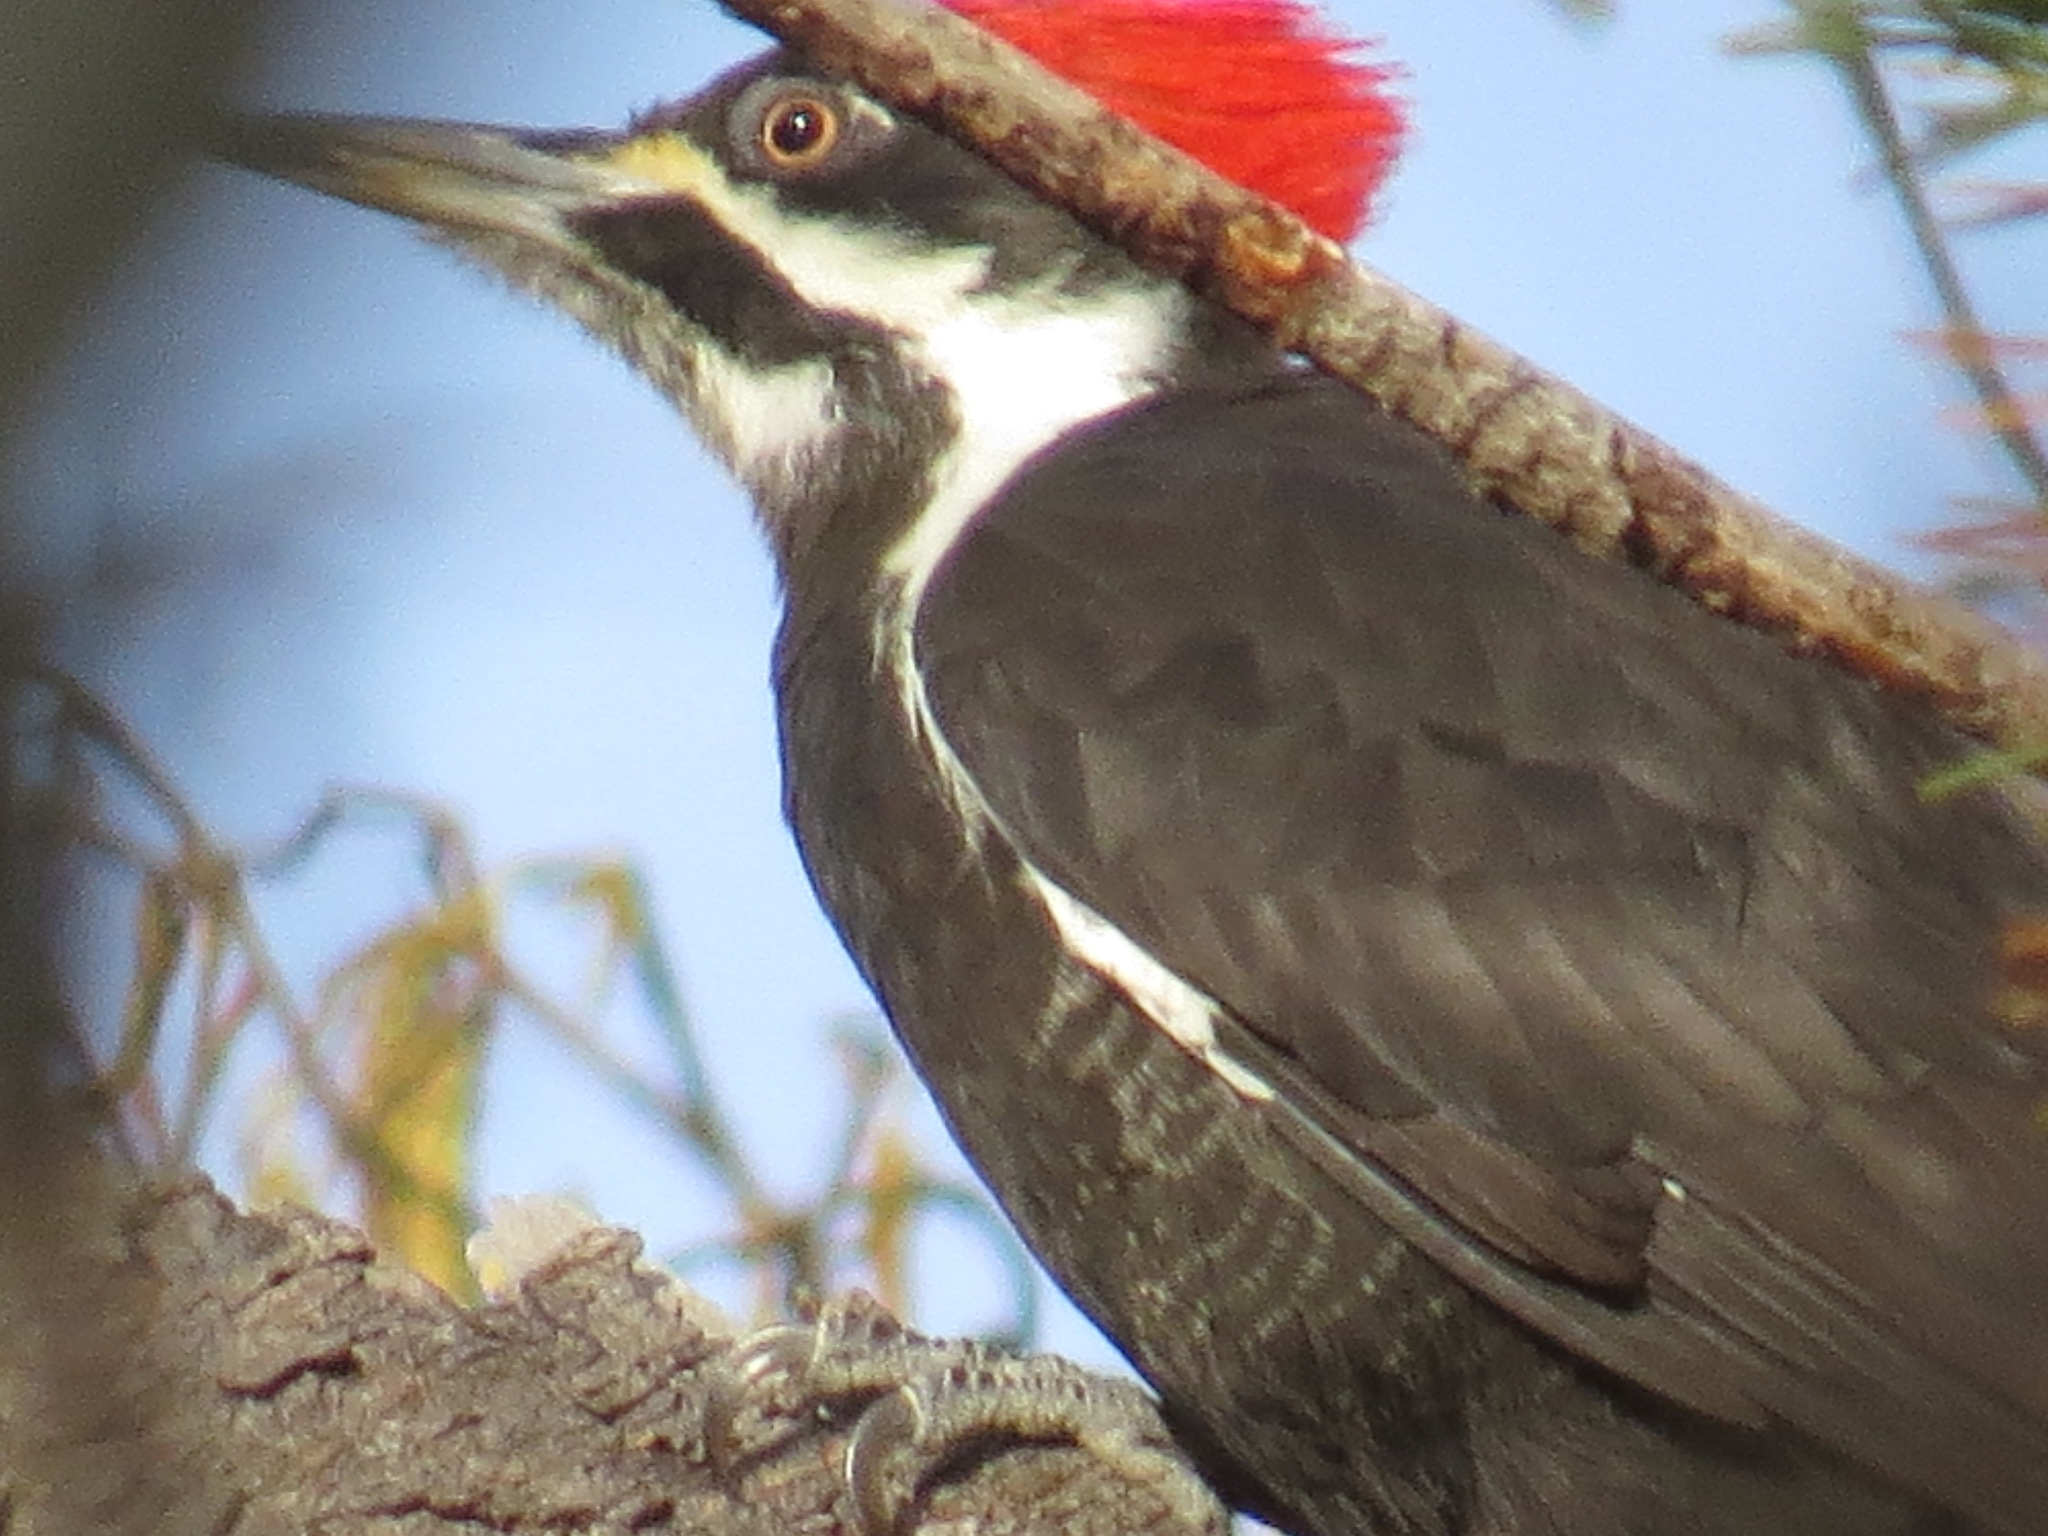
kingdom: Animalia
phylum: Chordata
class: Aves
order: Piciformes
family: Picidae
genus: Dryocopus
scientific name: Dryocopus pileatus
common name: Pileated woodpecker
